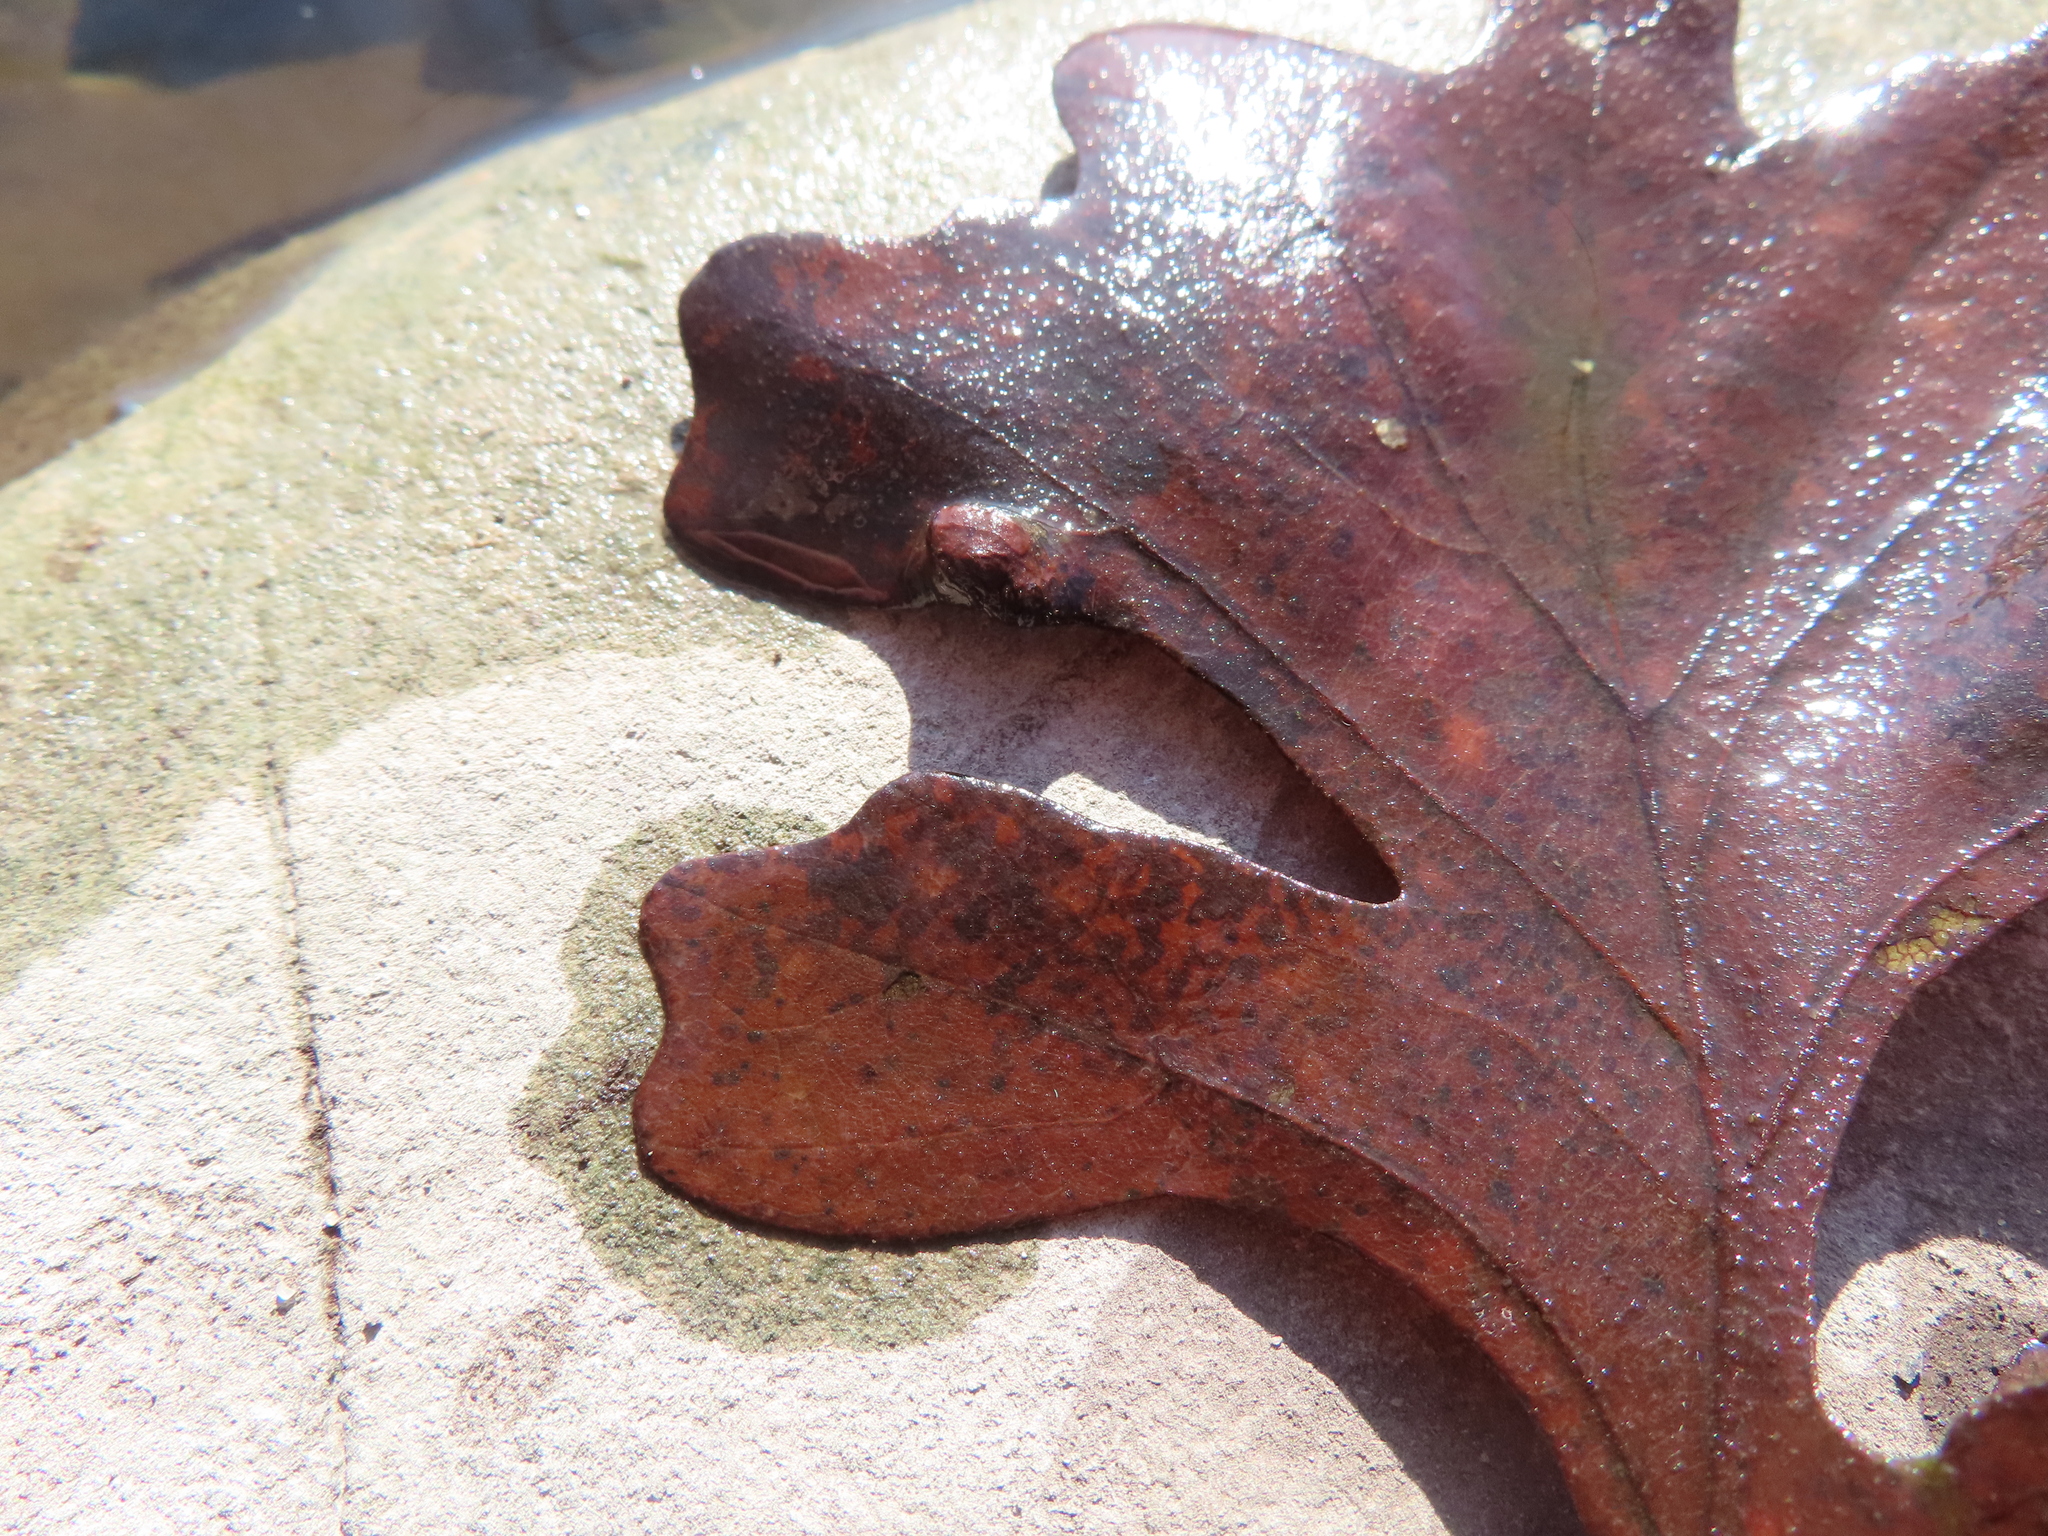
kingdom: Animalia
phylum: Arthropoda
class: Arachnida
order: Trombidiformes
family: Eriophyidae
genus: Aceria
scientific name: Aceria quercina
